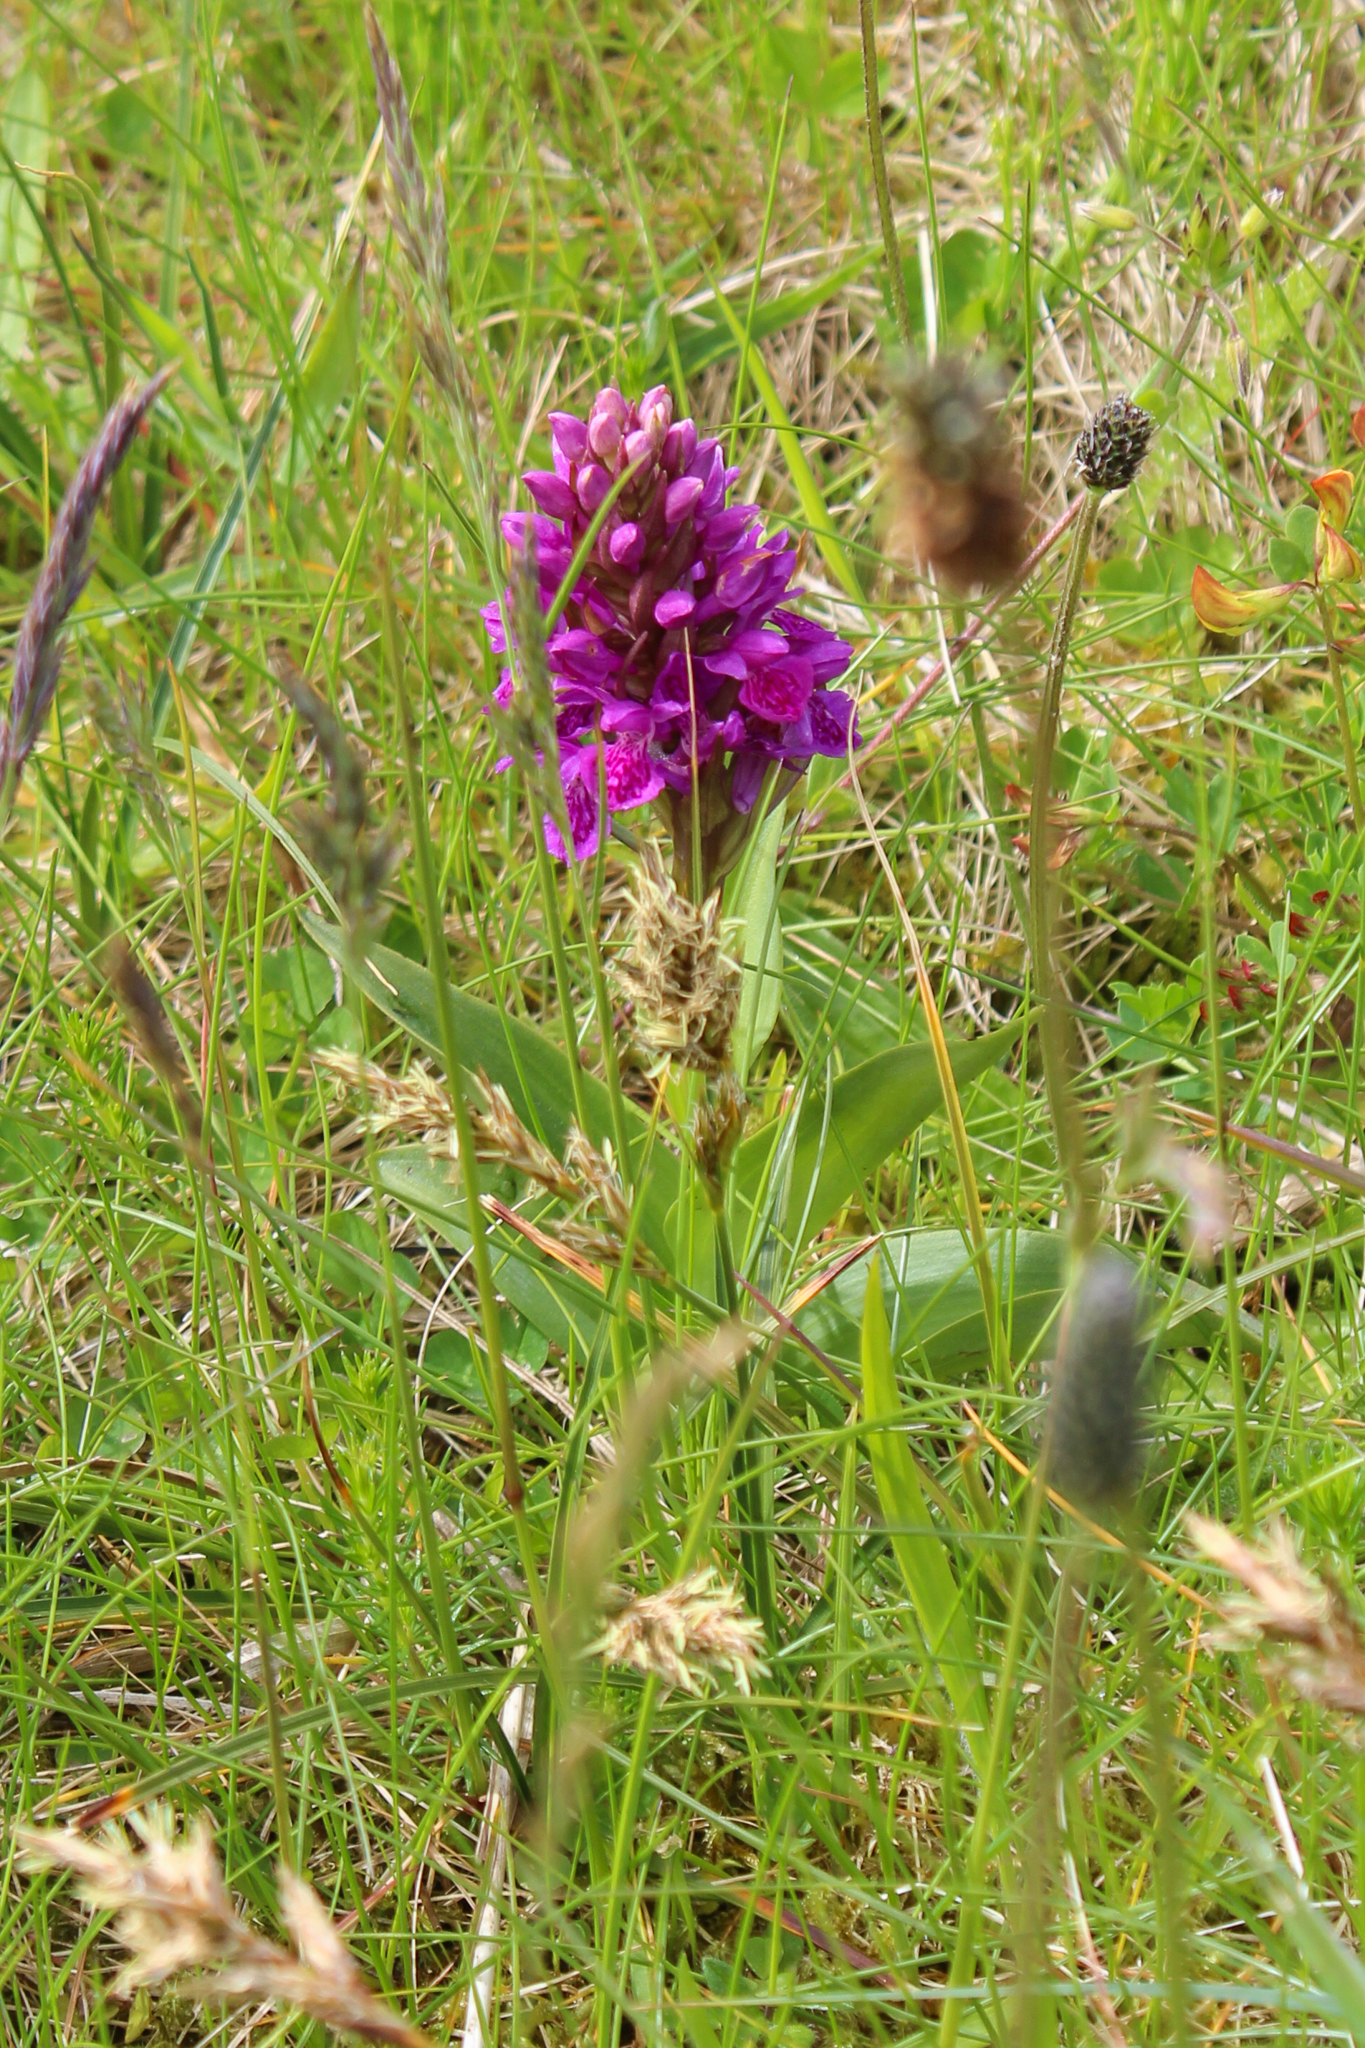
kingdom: Plantae
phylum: Tracheophyta
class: Liliopsida
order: Asparagales
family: Orchidaceae
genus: Dactylorhiza
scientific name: Dactylorhiza majalis
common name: Marsh orchid
